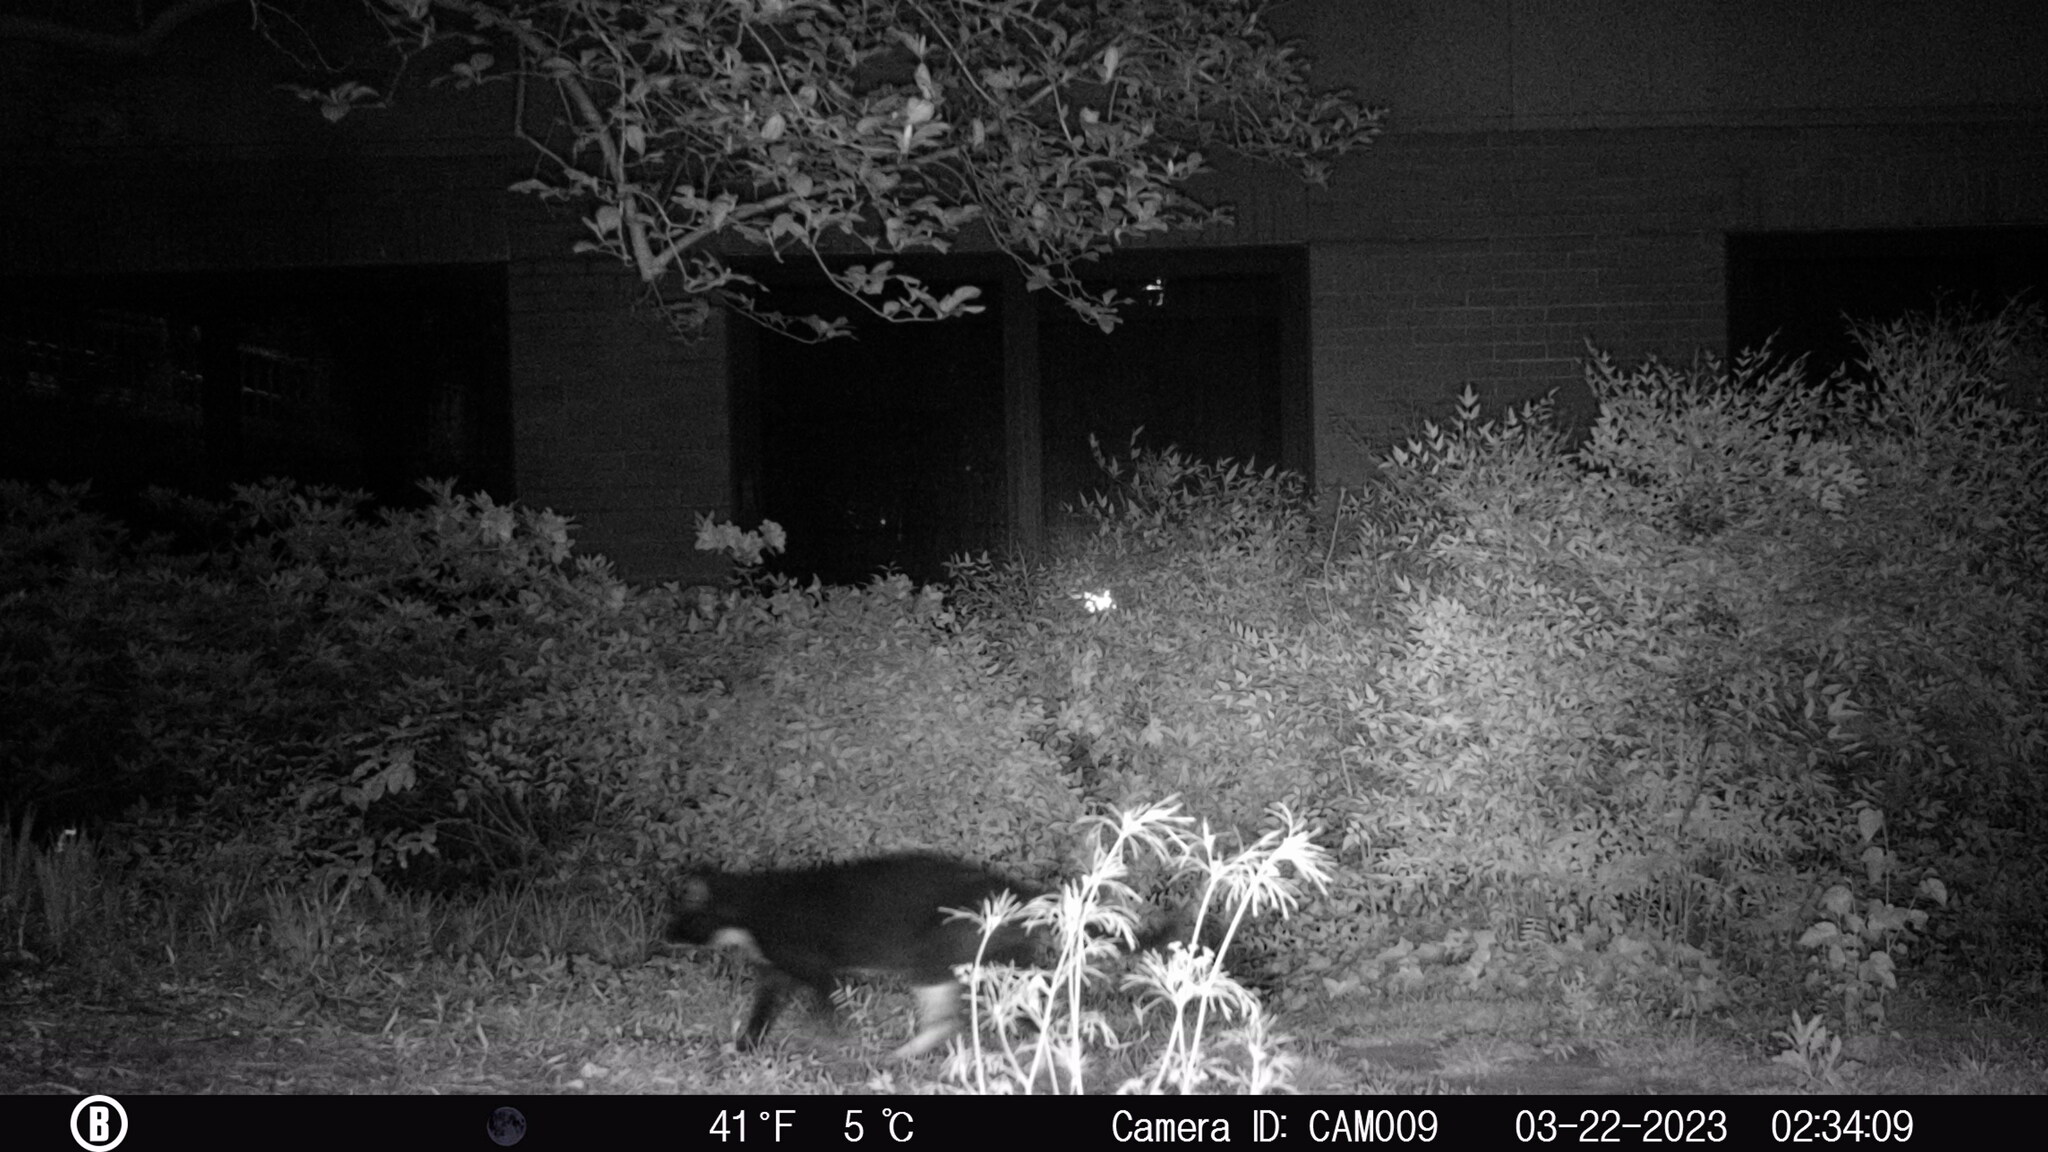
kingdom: Animalia
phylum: Chordata
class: Mammalia
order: Carnivora
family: Felidae
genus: Felis
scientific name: Felis catus
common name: Domestic cat
